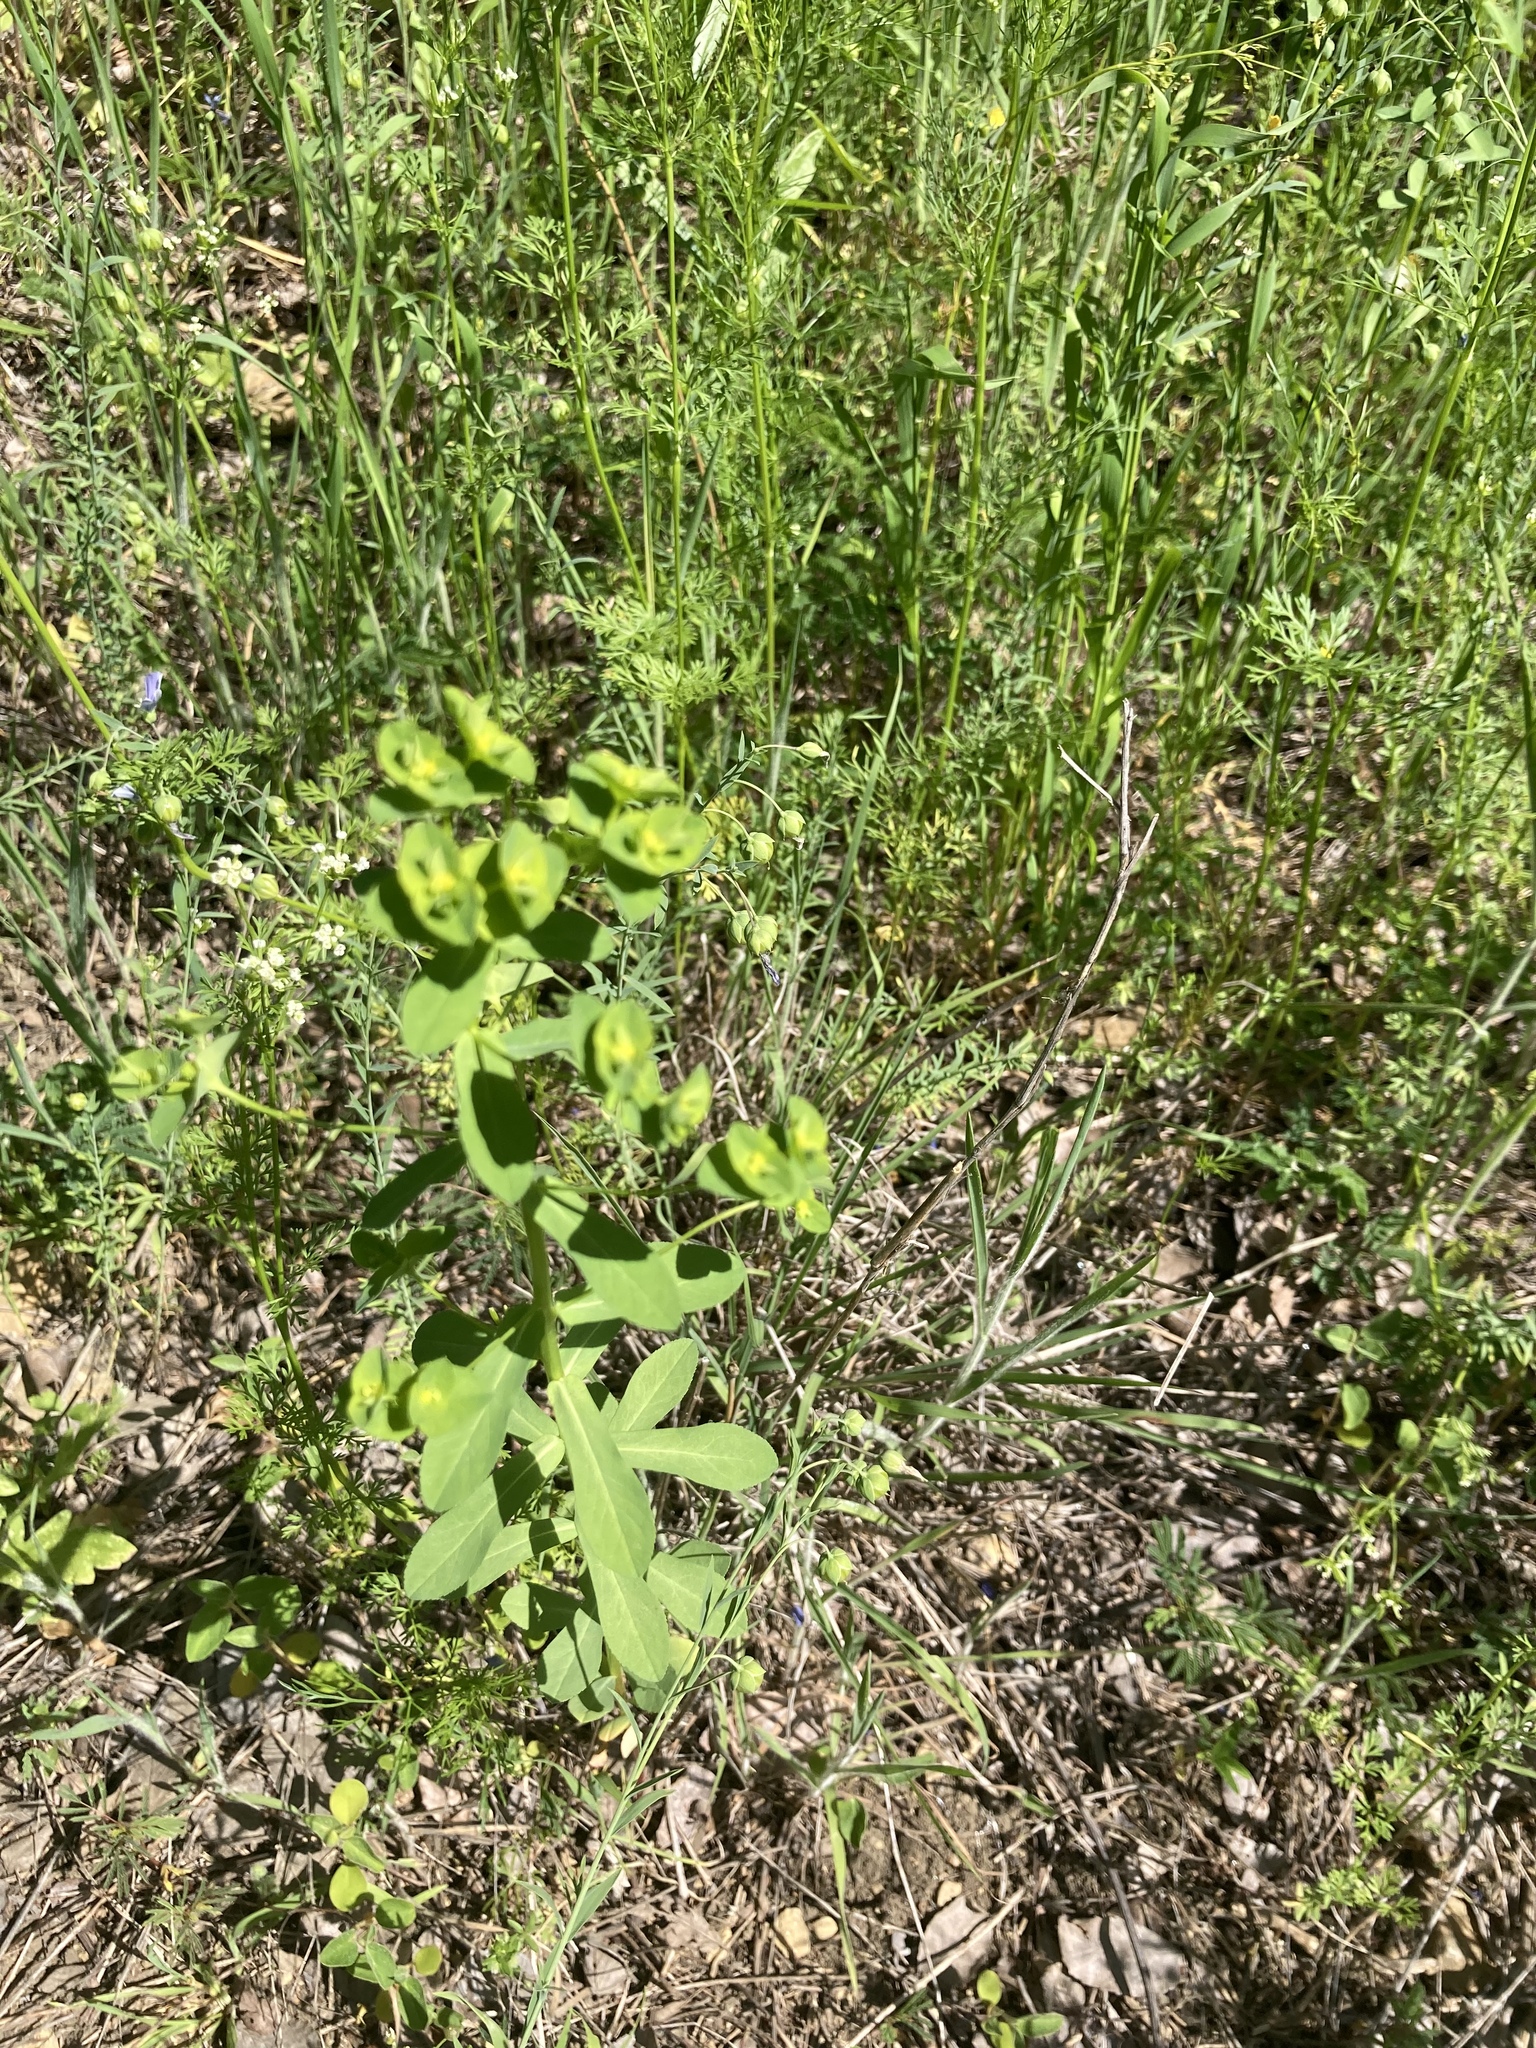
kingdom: Plantae
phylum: Tracheophyta
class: Magnoliopsida
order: Malpighiales
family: Euphorbiaceae
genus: Euphorbia
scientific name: Euphorbia spathulata
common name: Blunt spurge
